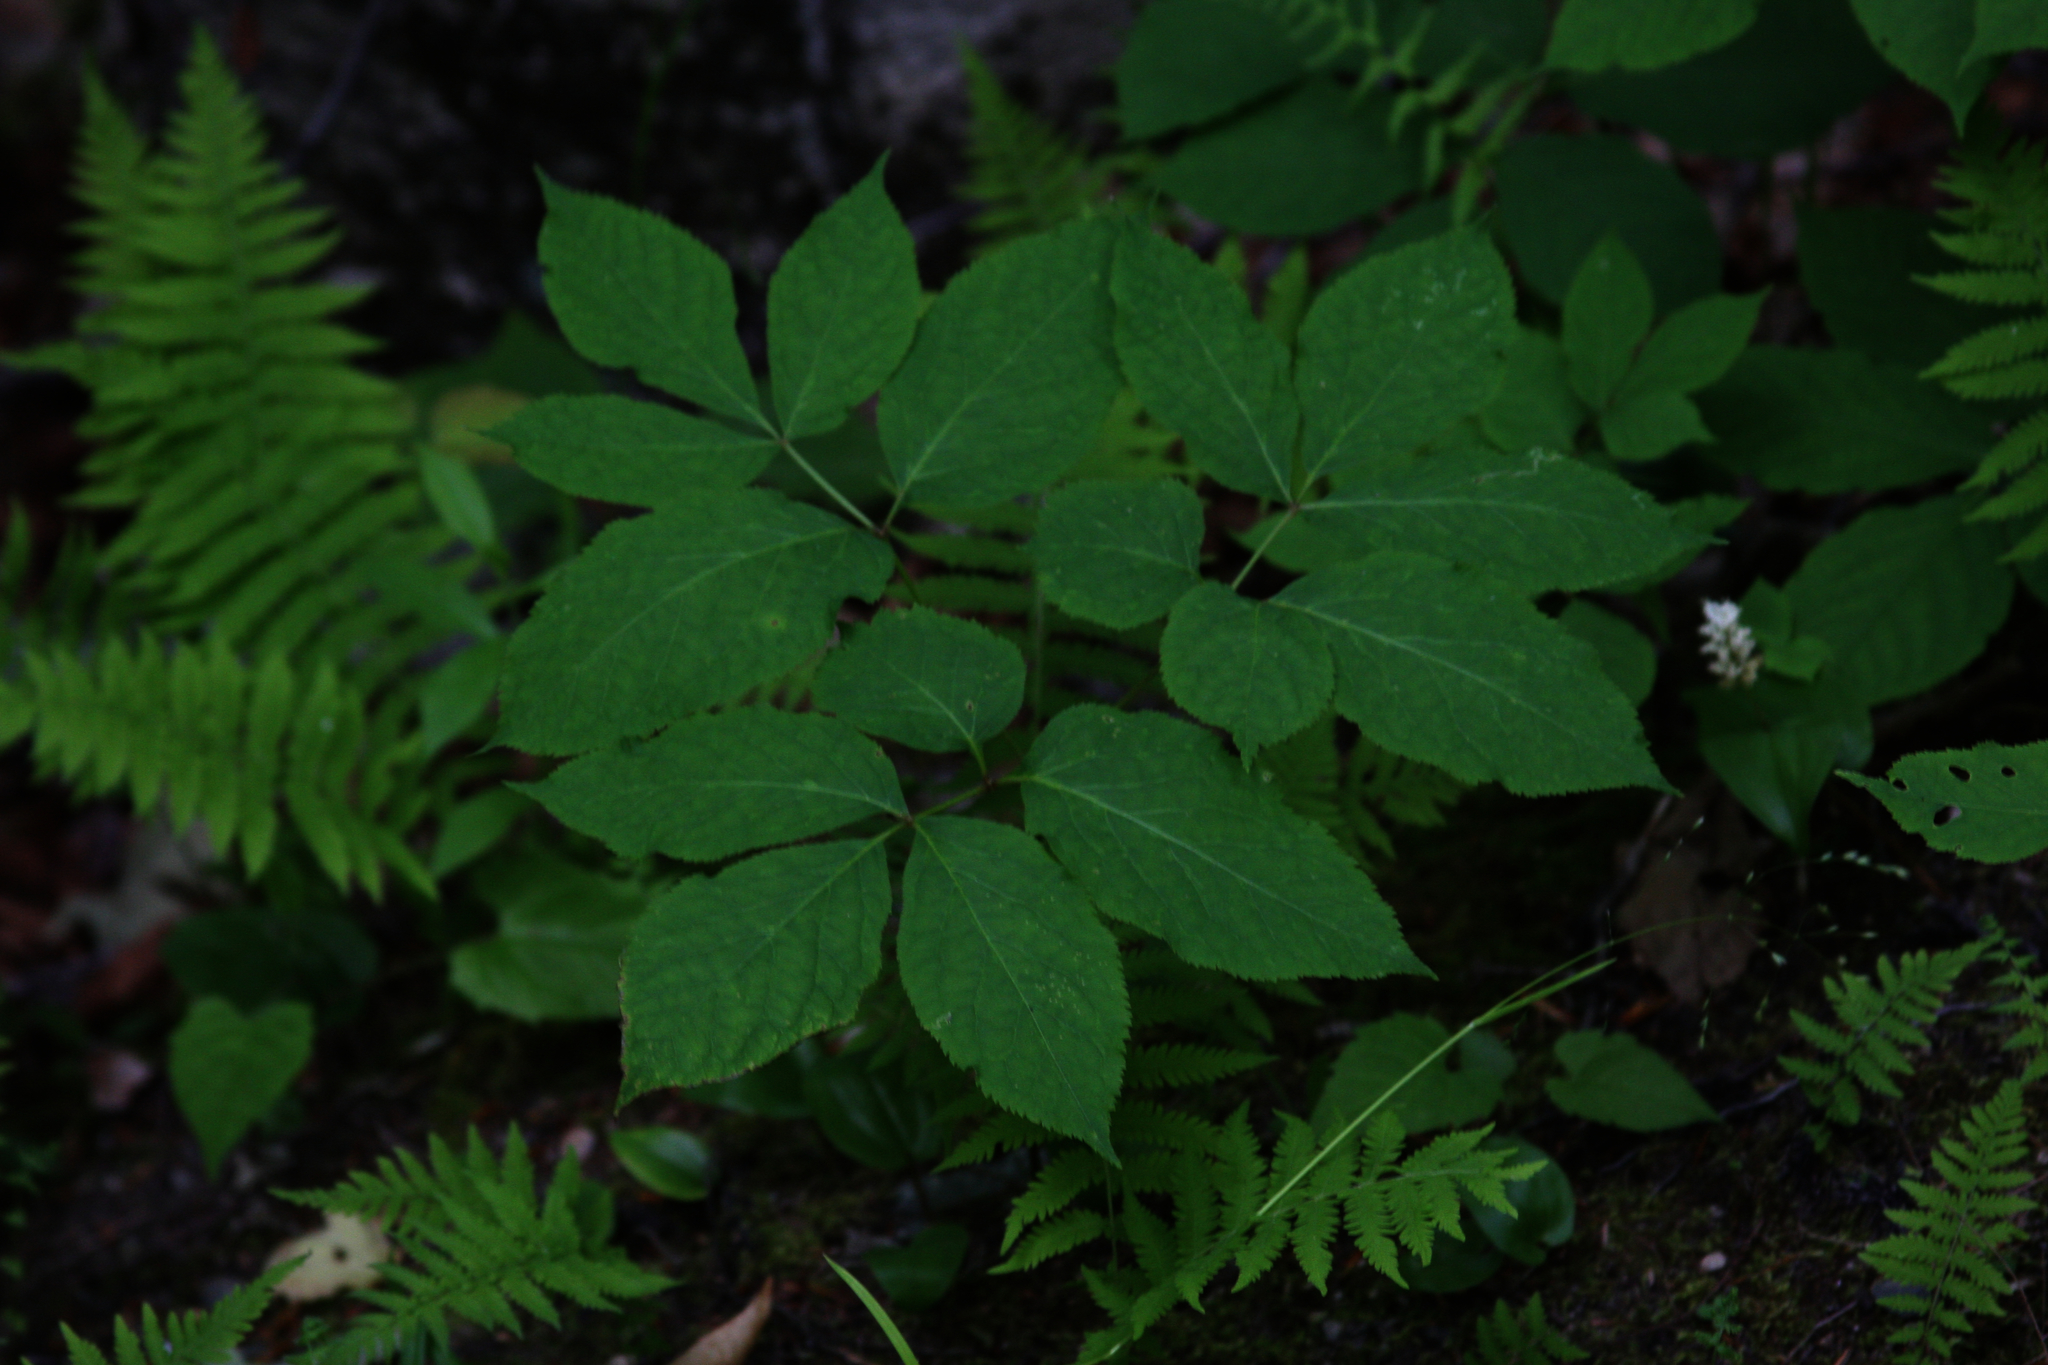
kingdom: Plantae
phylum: Tracheophyta
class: Magnoliopsida
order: Apiales
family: Araliaceae
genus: Aralia
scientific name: Aralia nudicaulis
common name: Wild sarsaparilla
